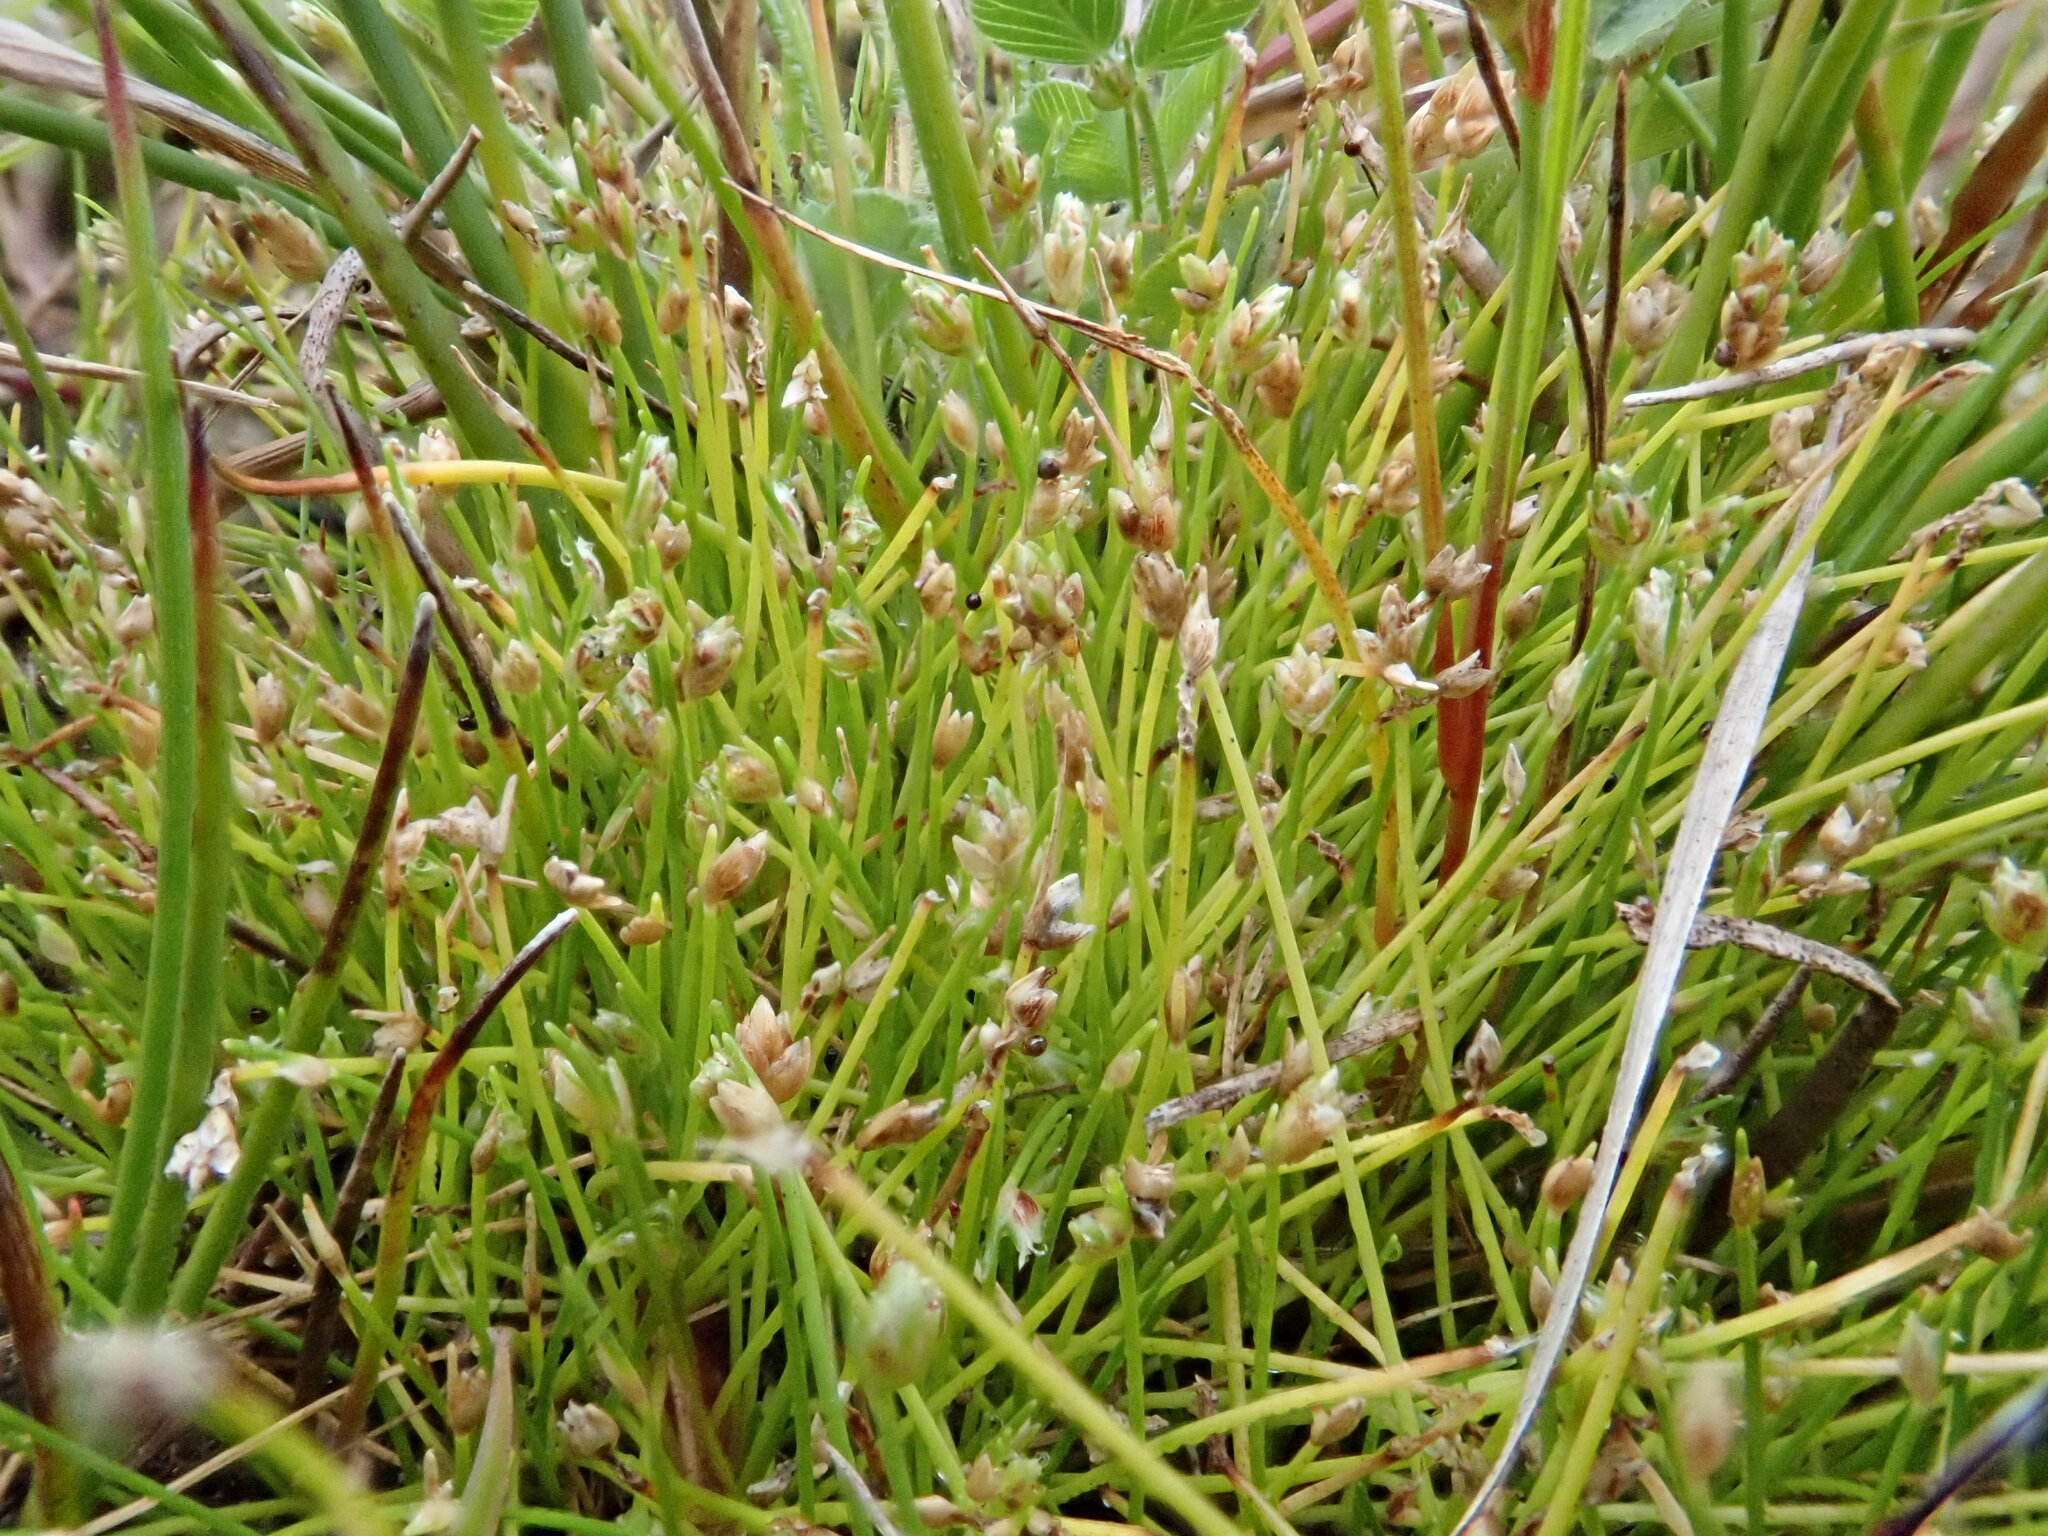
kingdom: Plantae
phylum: Tracheophyta
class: Liliopsida
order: Poales
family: Cyperaceae
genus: Isolepis
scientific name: Isolepis cernua
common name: Slender club-rush
